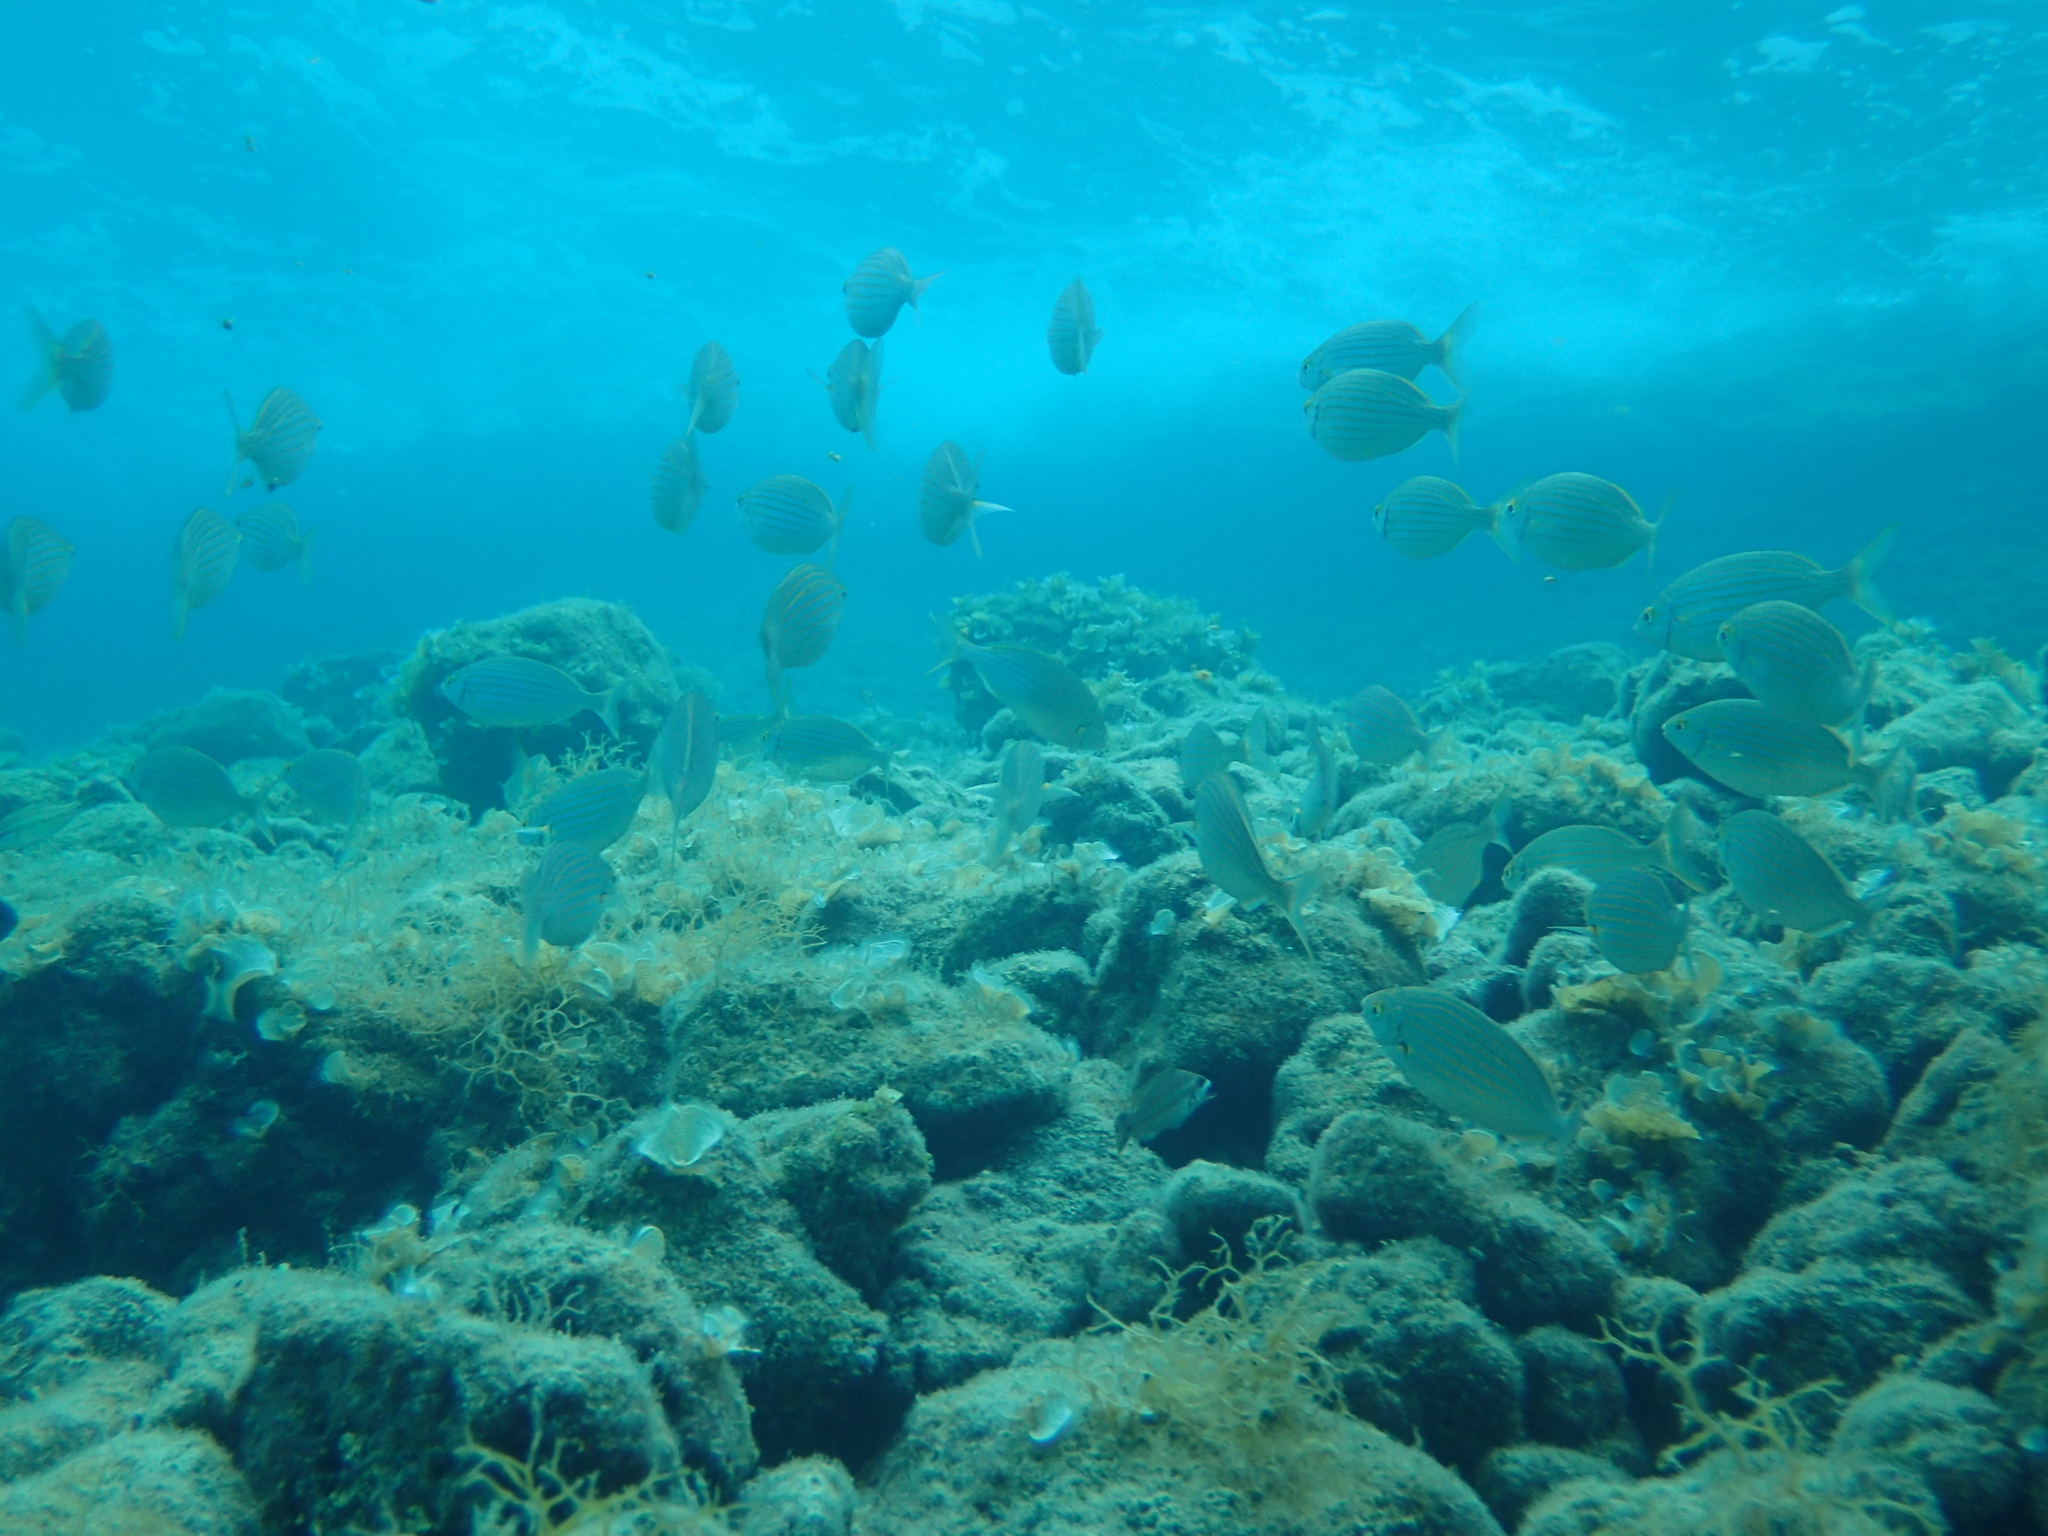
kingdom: Animalia
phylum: Chordata
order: Perciformes
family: Sparidae
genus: Sarpa
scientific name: Sarpa salpa
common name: Salema
